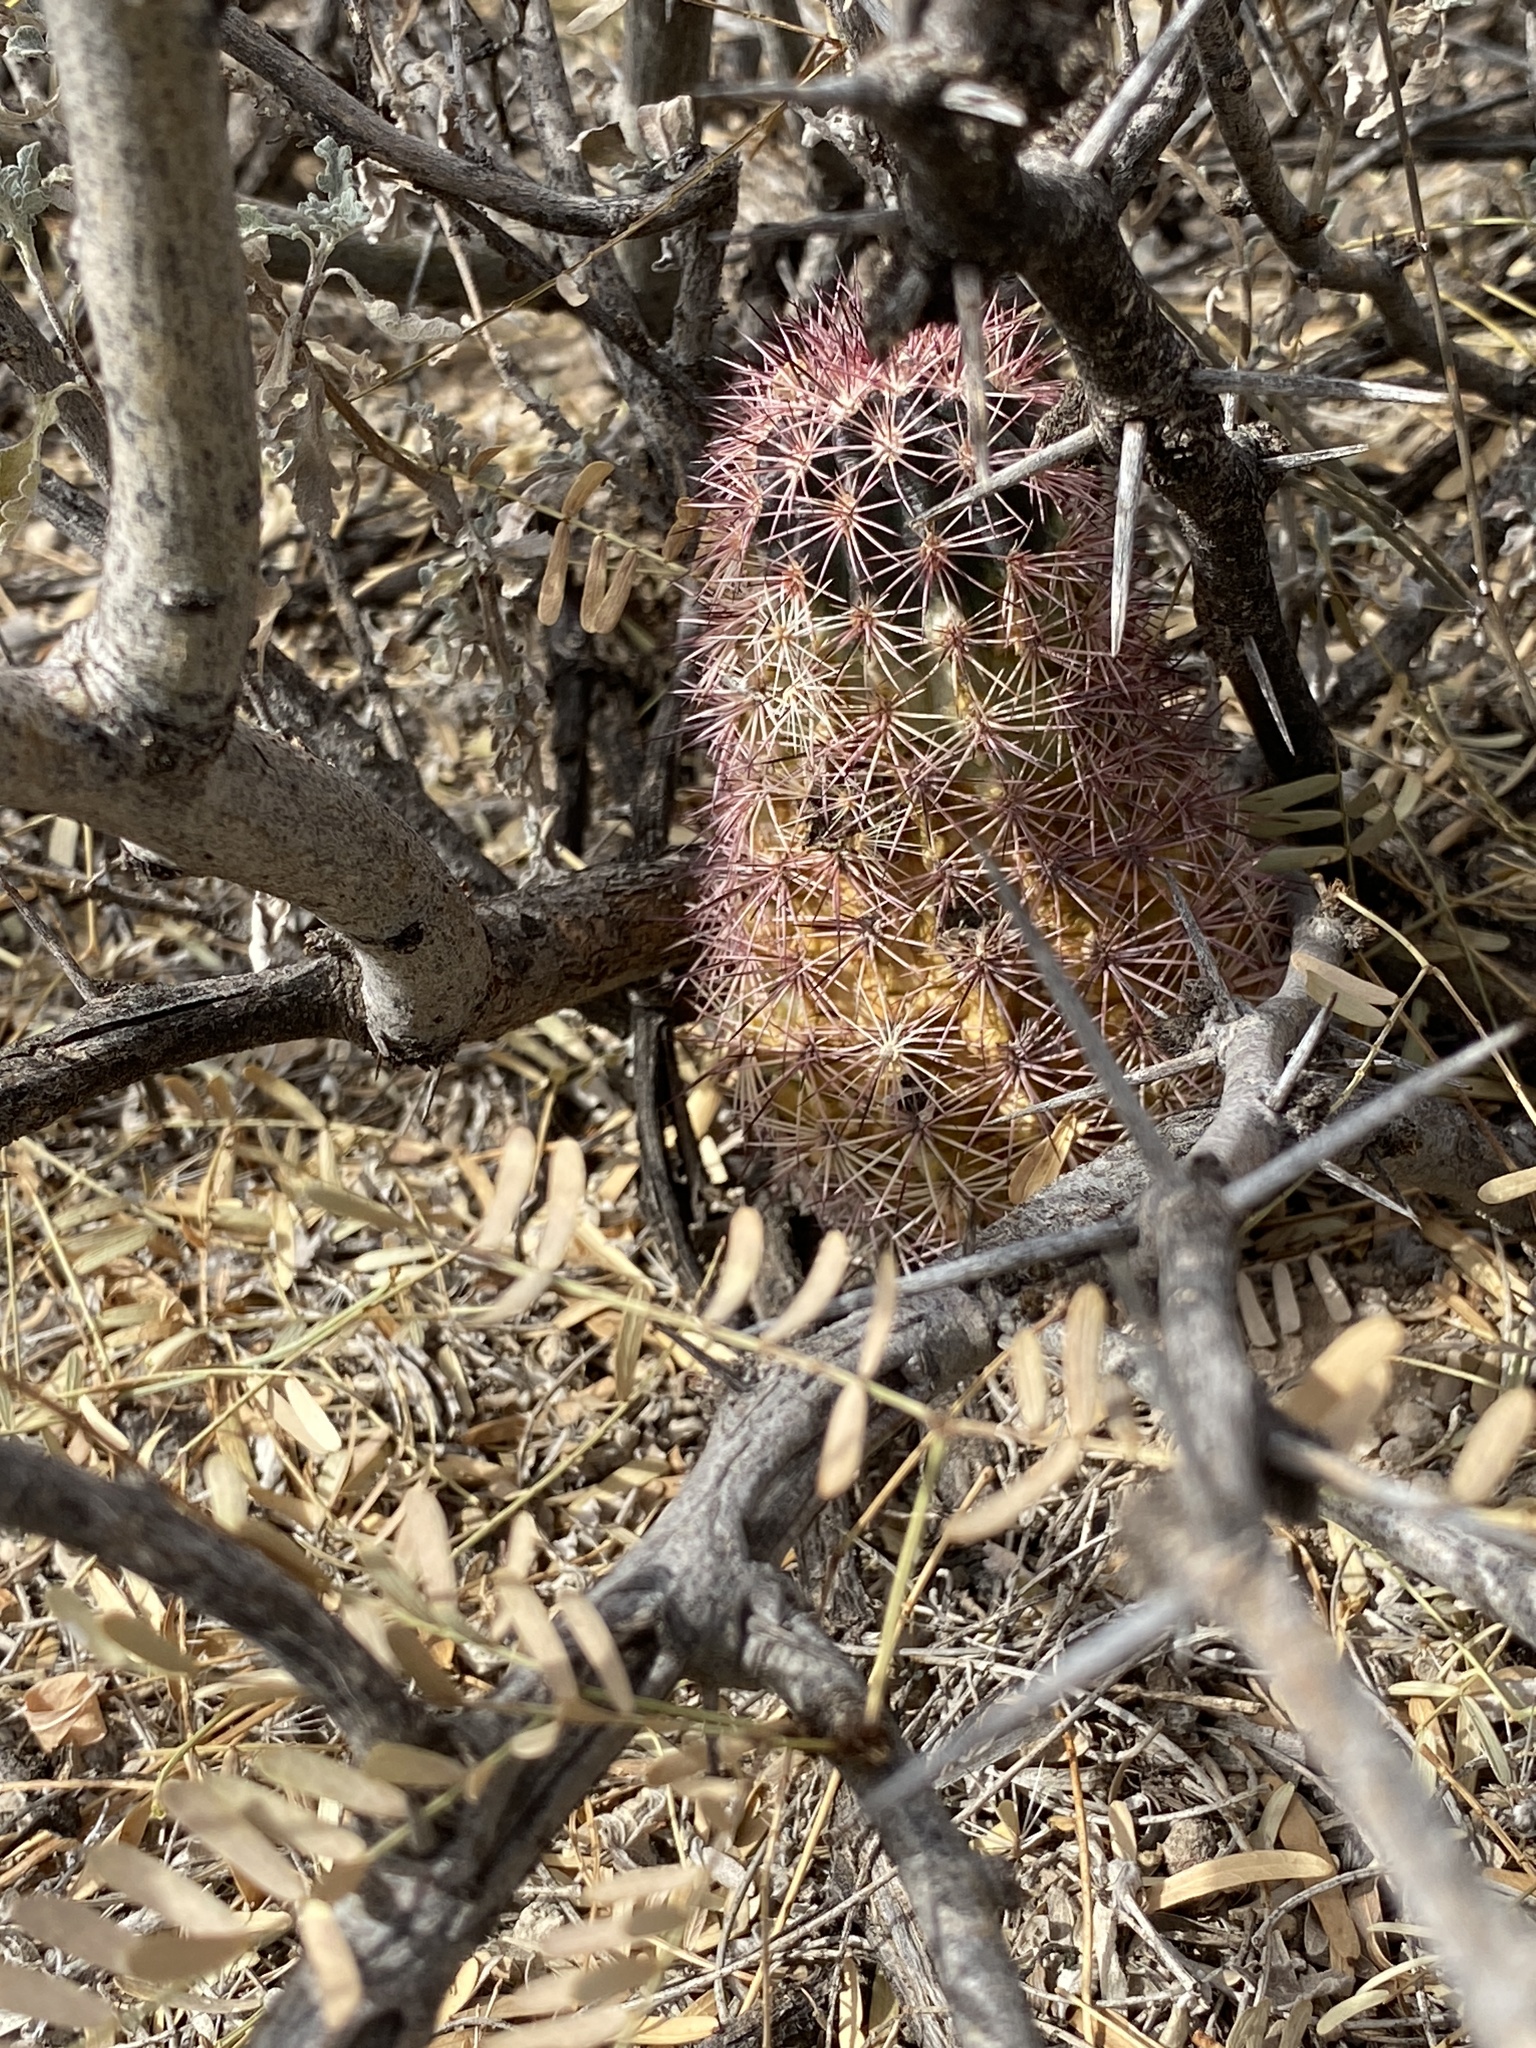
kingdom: Plantae
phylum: Tracheophyta
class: Magnoliopsida
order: Caryophyllales
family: Cactaceae
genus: Echinocereus
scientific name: Echinocereus dasyacanthus
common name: Spiny hedgehog cactus
